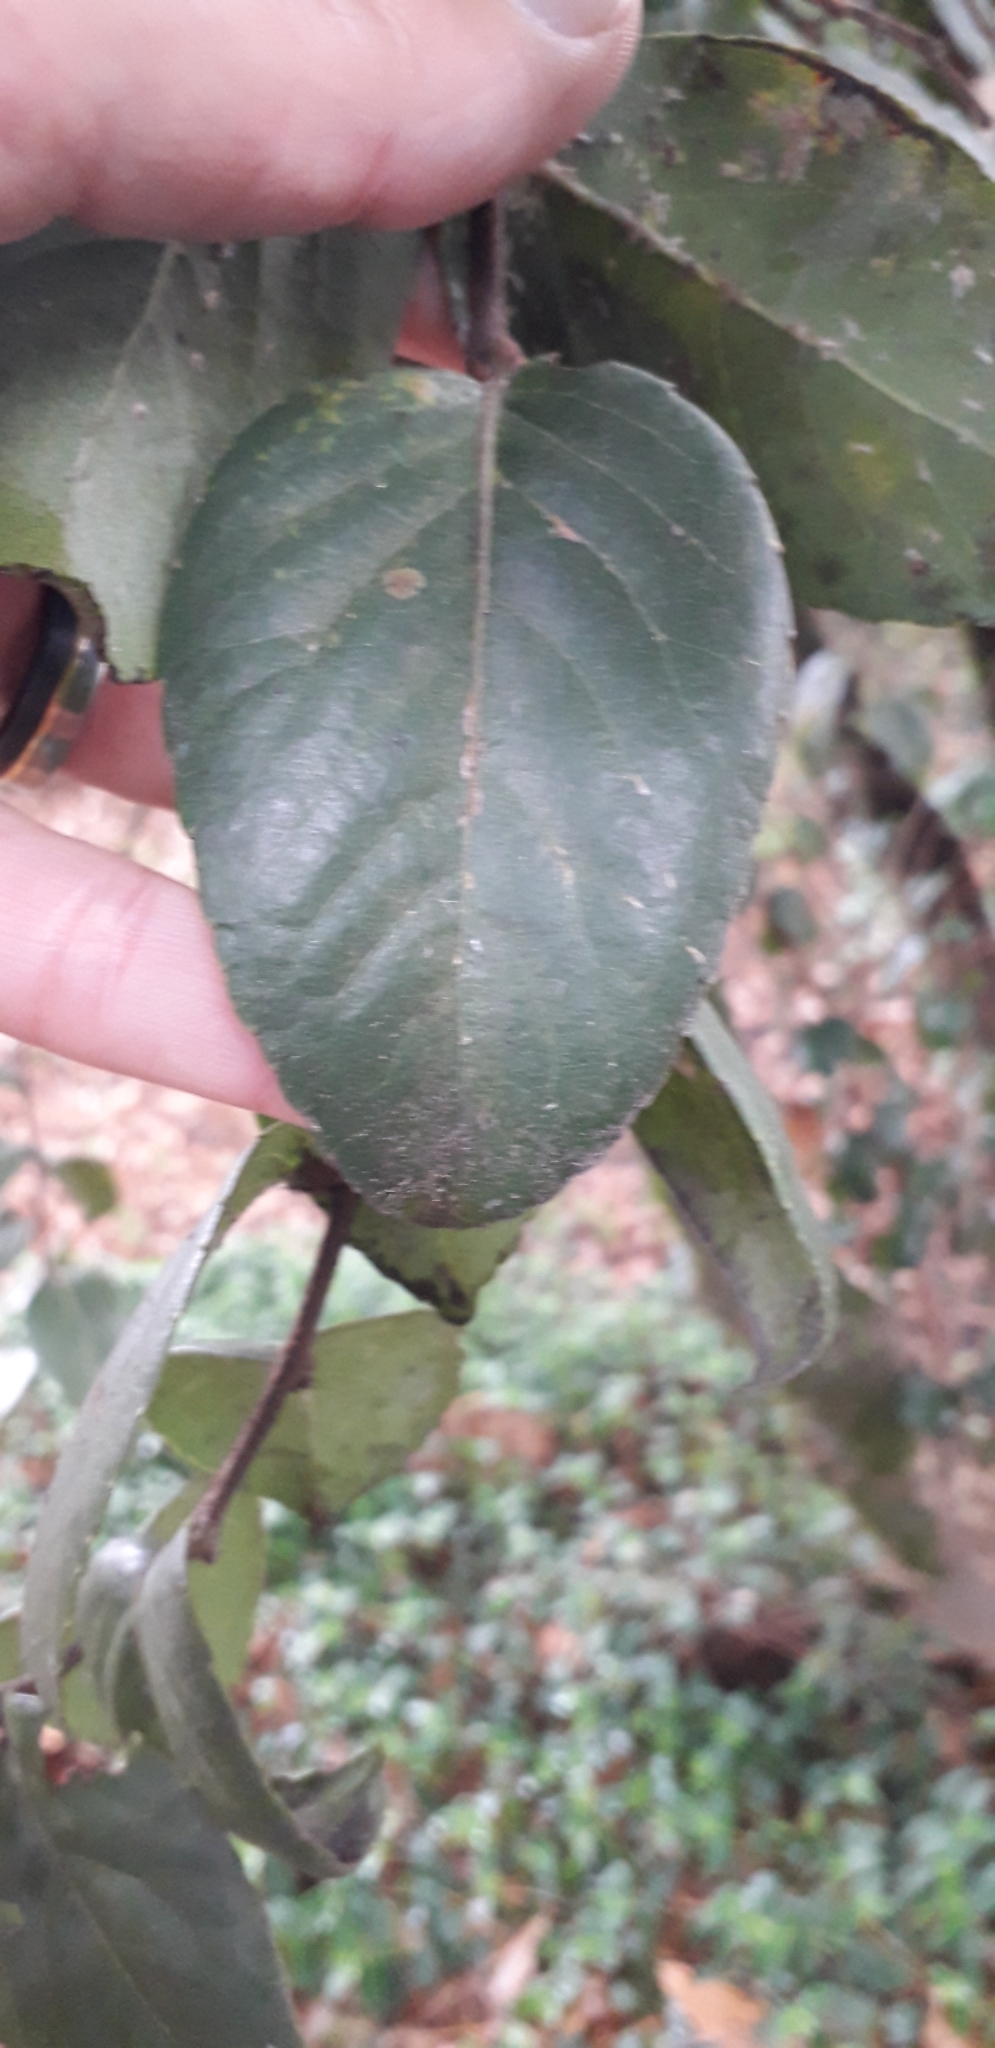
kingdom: Plantae
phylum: Tracheophyta
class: Magnoliopsida
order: Malpighiales
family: Salicaceae
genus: Xylosma
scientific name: Xylosma spiculifera
